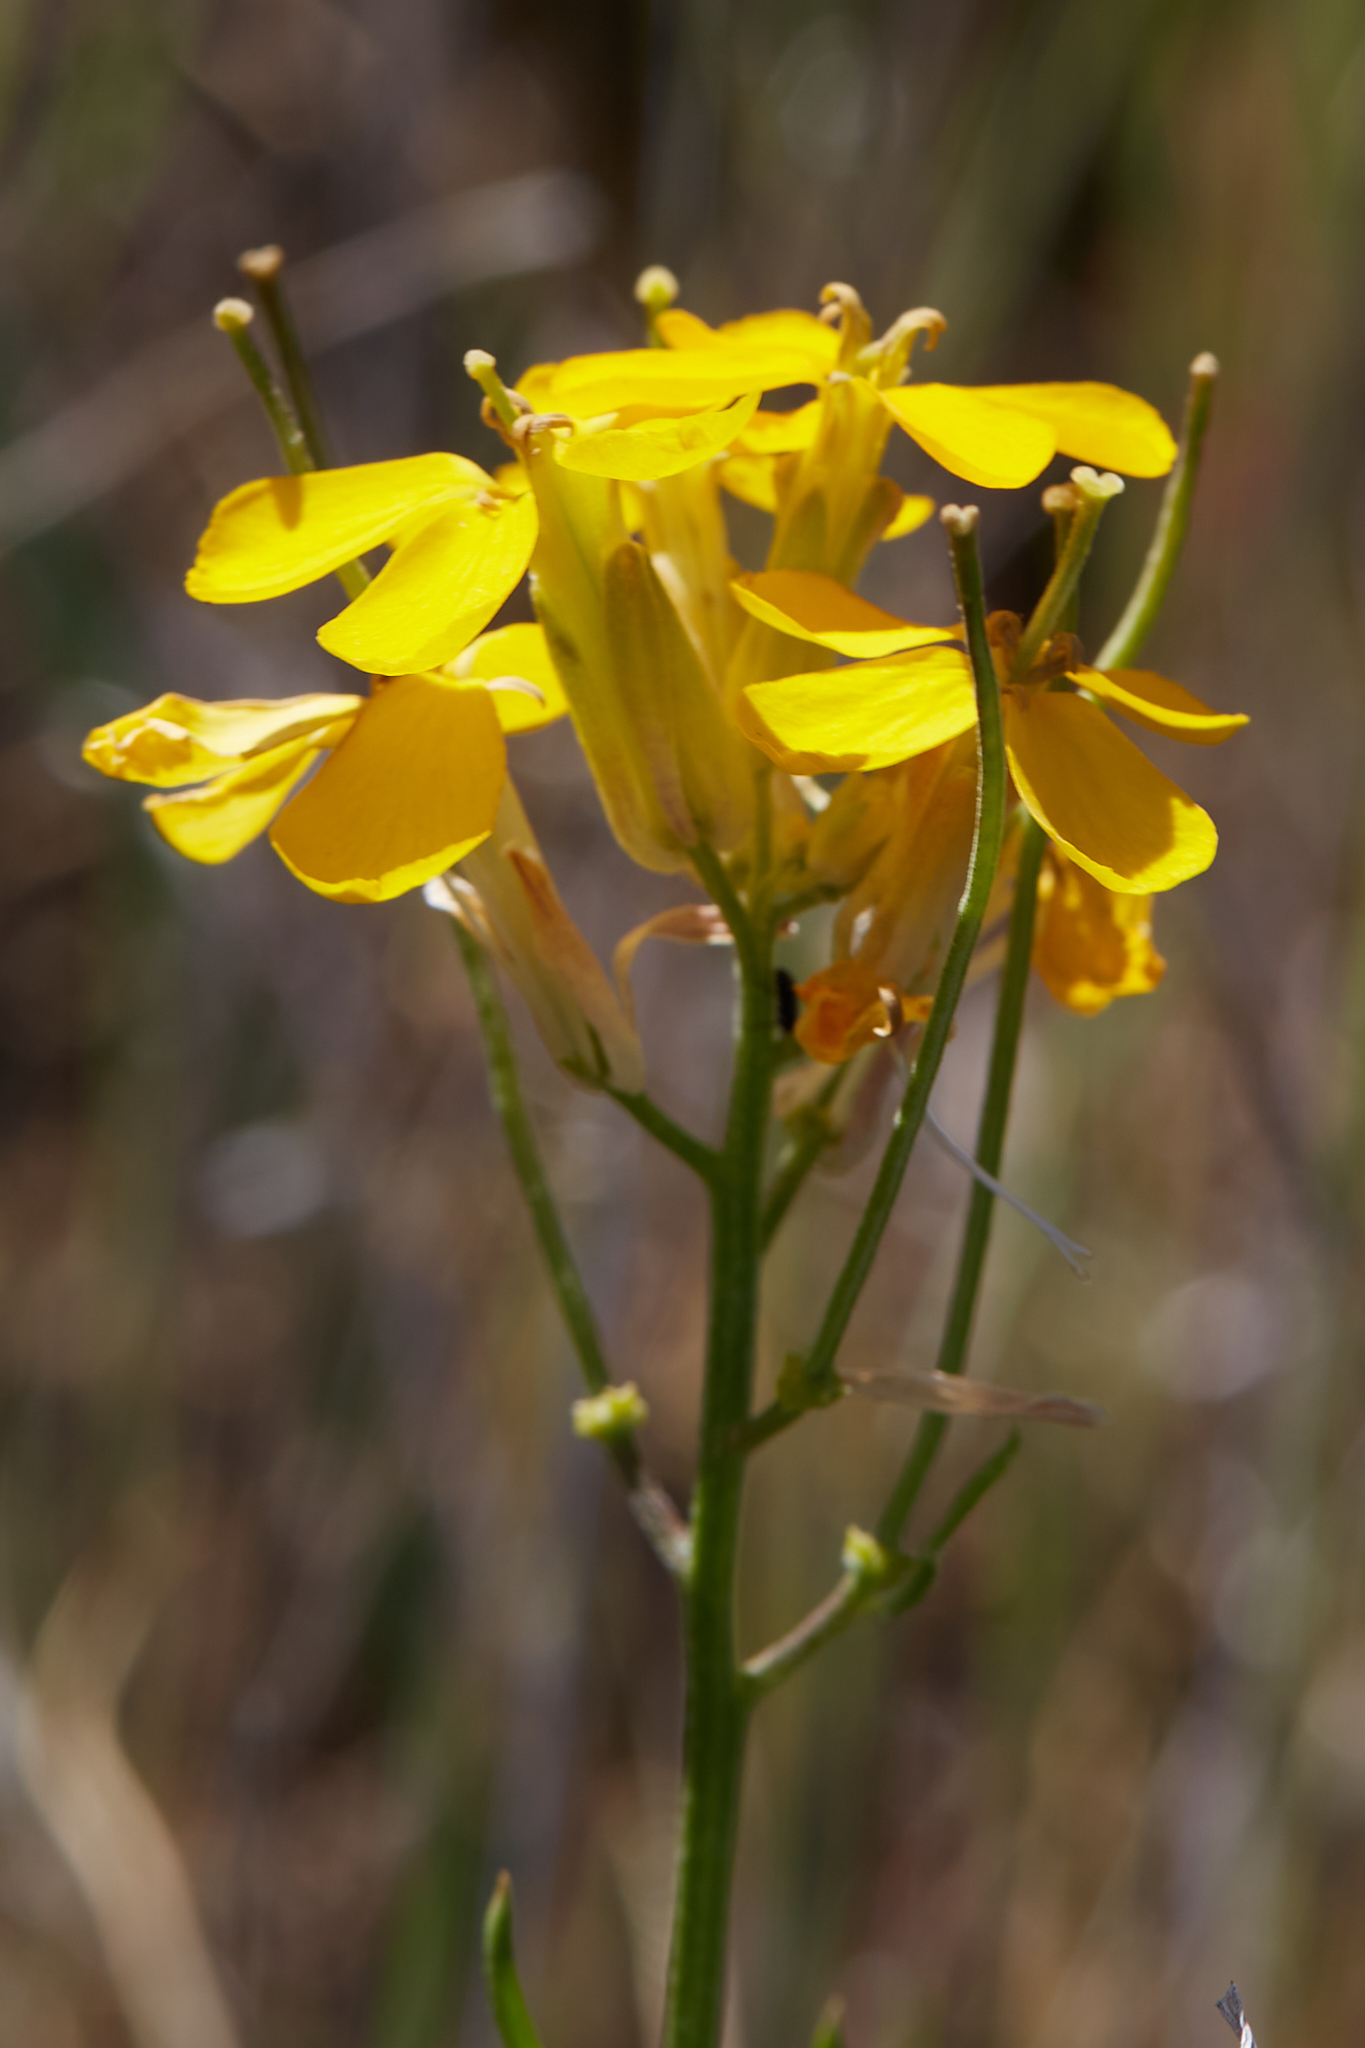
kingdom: Plantae
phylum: Tracheophyta
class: Magnoliopsida
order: Brassicales
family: Brassicaceae
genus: Erysimum
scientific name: Erysimum capitatum
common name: Western wallflower
